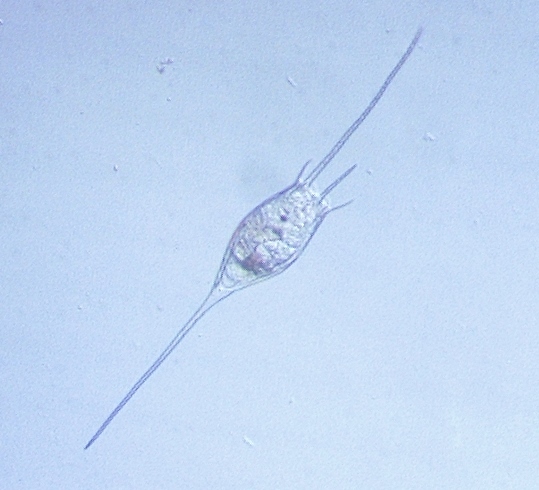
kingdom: Animalia
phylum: Rotifera
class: Eurotatoria
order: Ploima
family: Brachionidae
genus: Kellicottia
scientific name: Kellicottia bostoniensis
